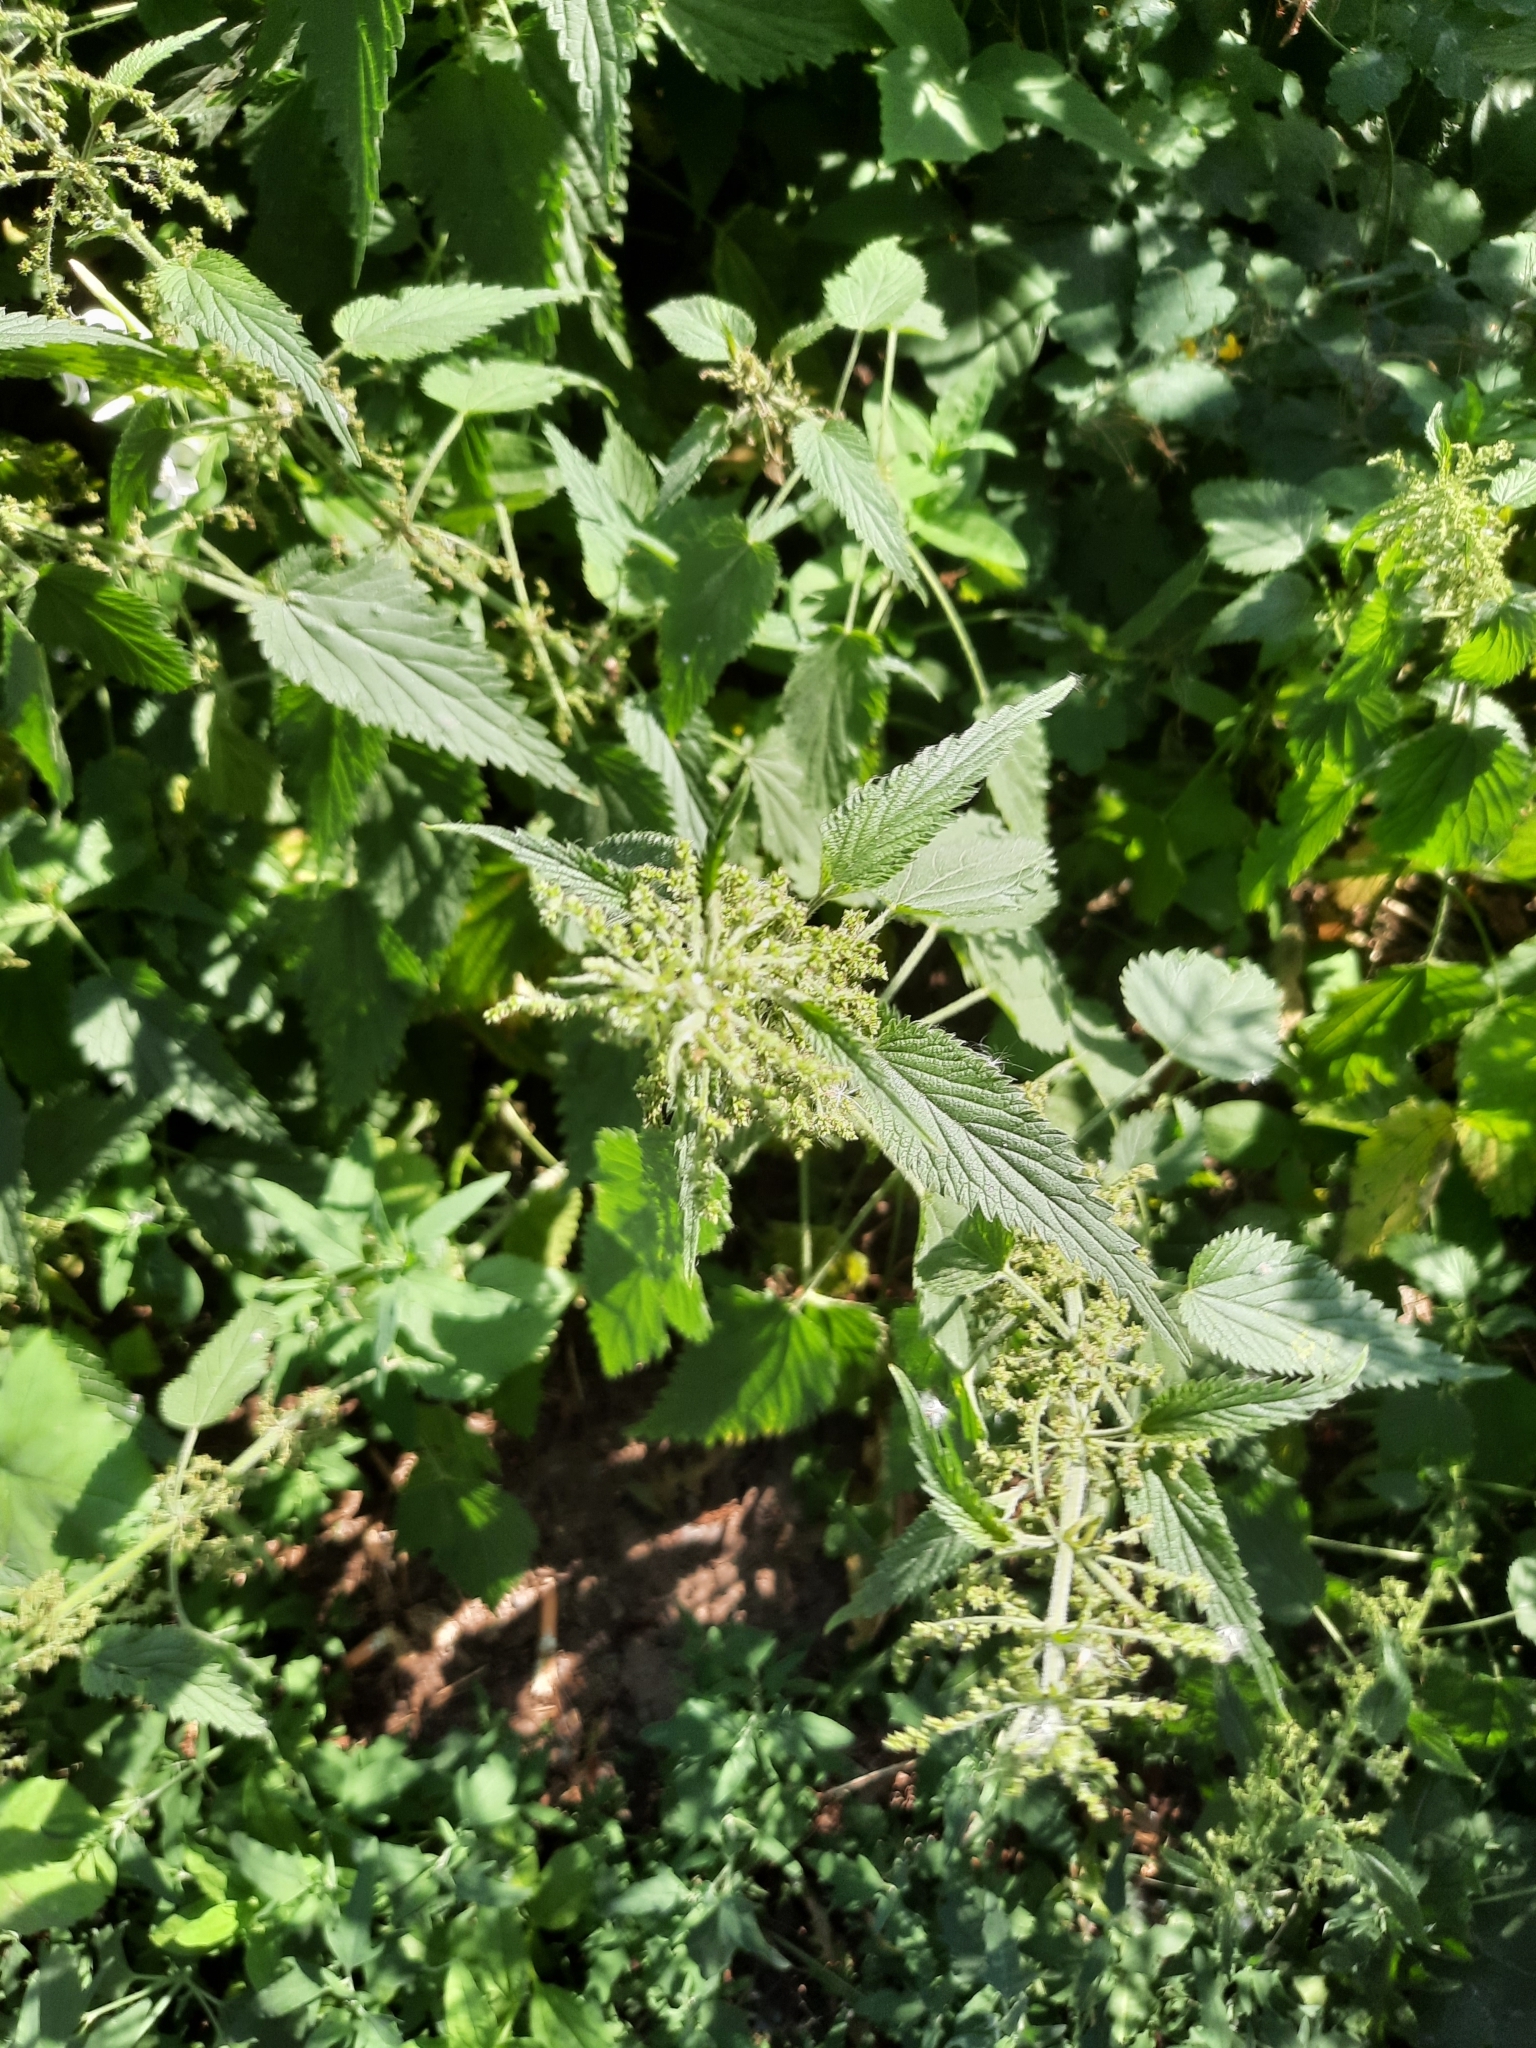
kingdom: Plantae
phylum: Tracheophyta
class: Magnoliopsida
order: Rosales
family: Urticaceae
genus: Urtica
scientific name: Urtica dioica
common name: Common nettle
